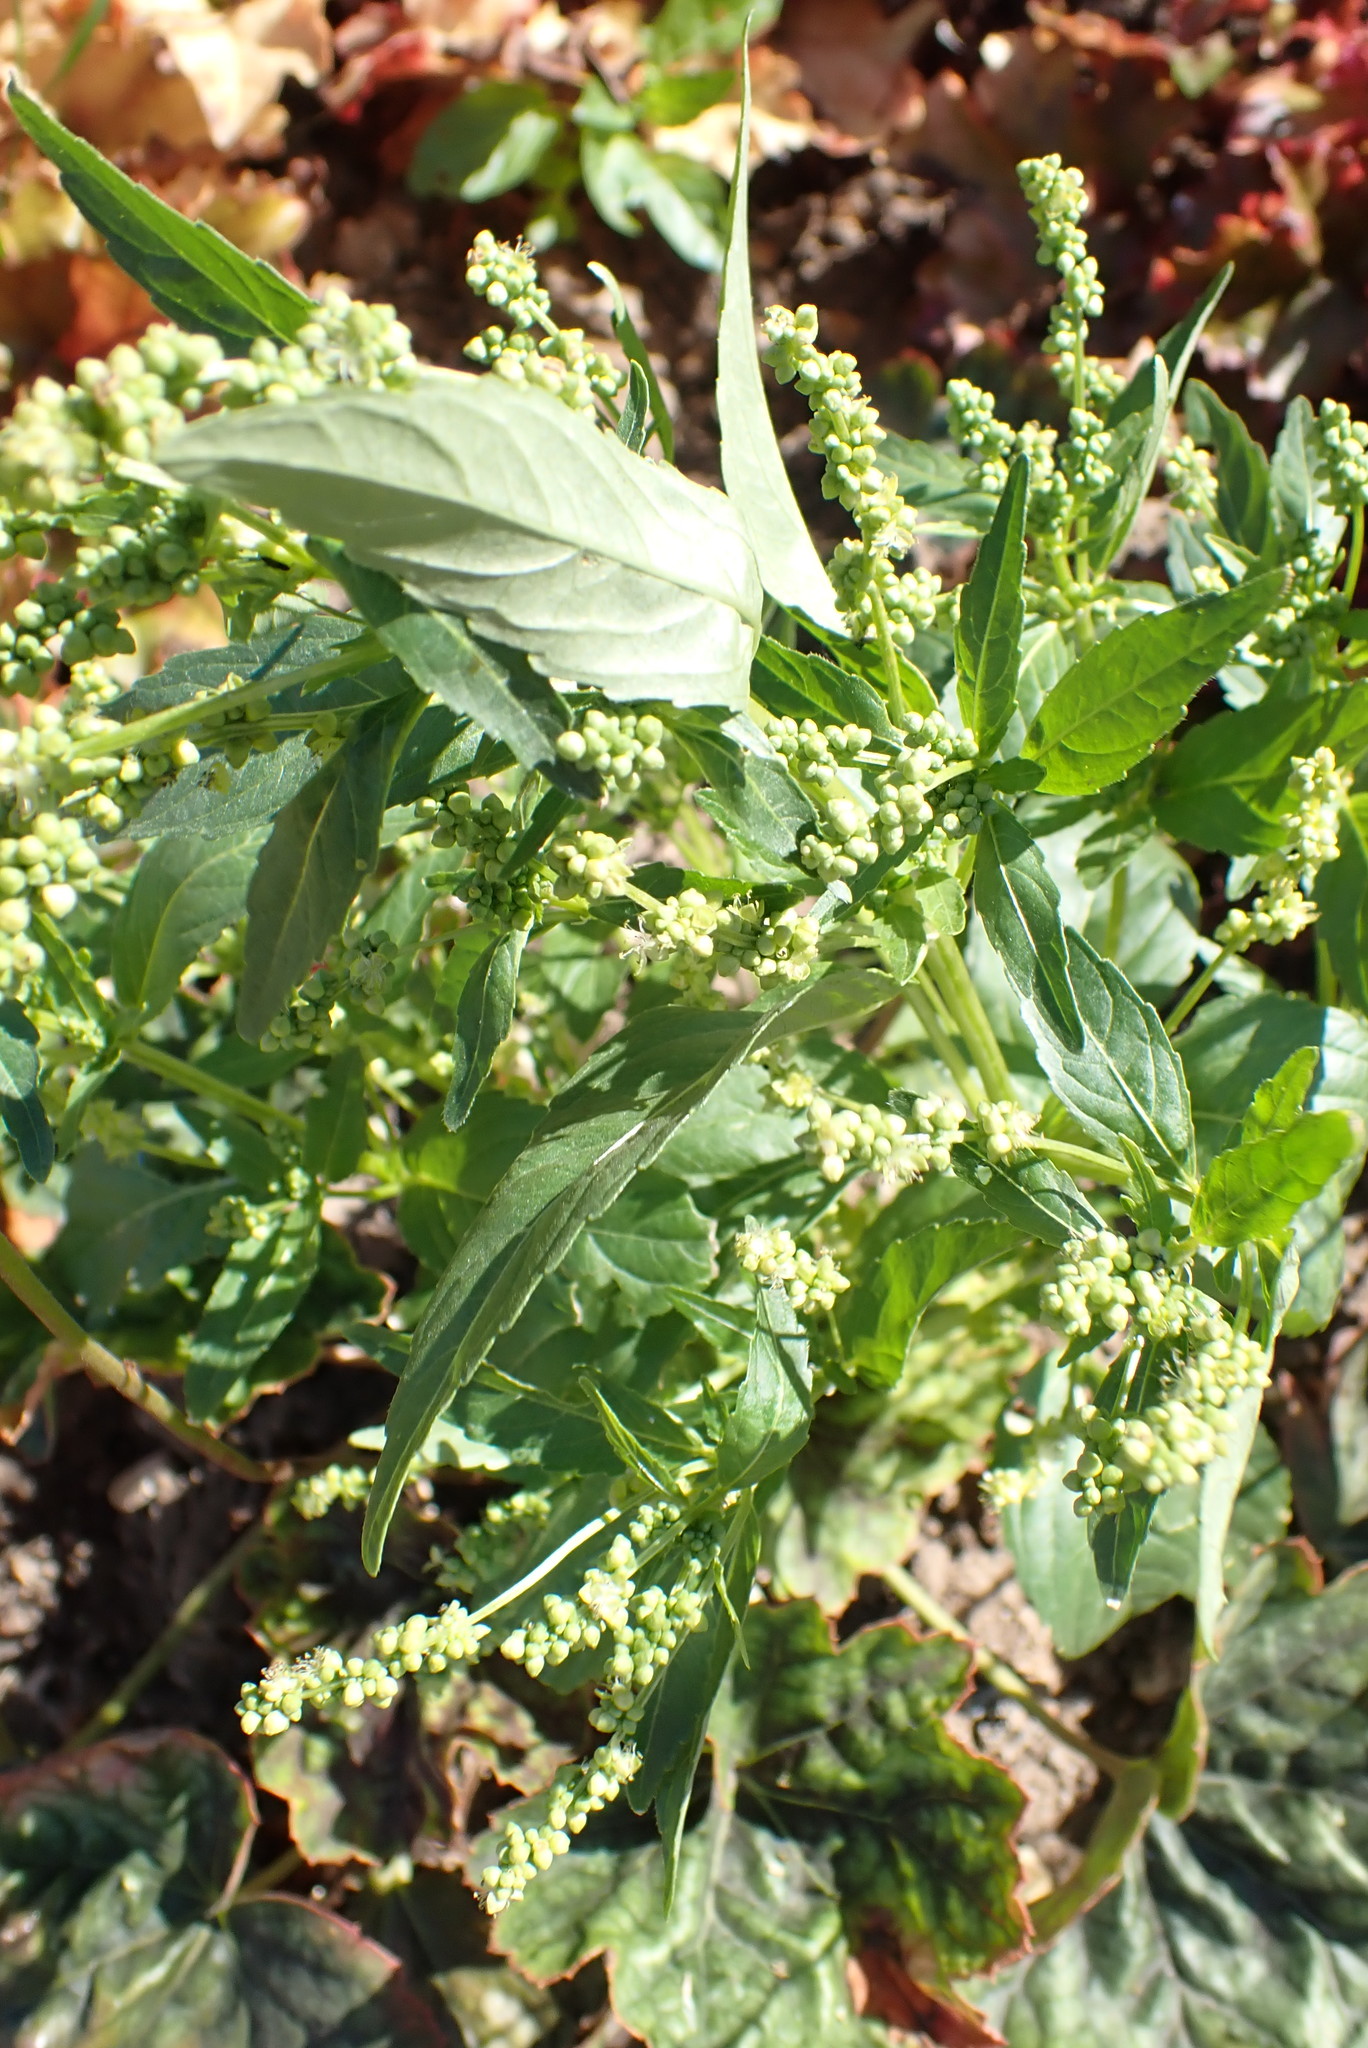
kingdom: Plantae
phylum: Tracheophyta
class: Magnoliopsida
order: Malpighiales
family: Euphorbiaceae
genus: Mercurialis
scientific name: Mercurialis annua
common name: Annual mercury
